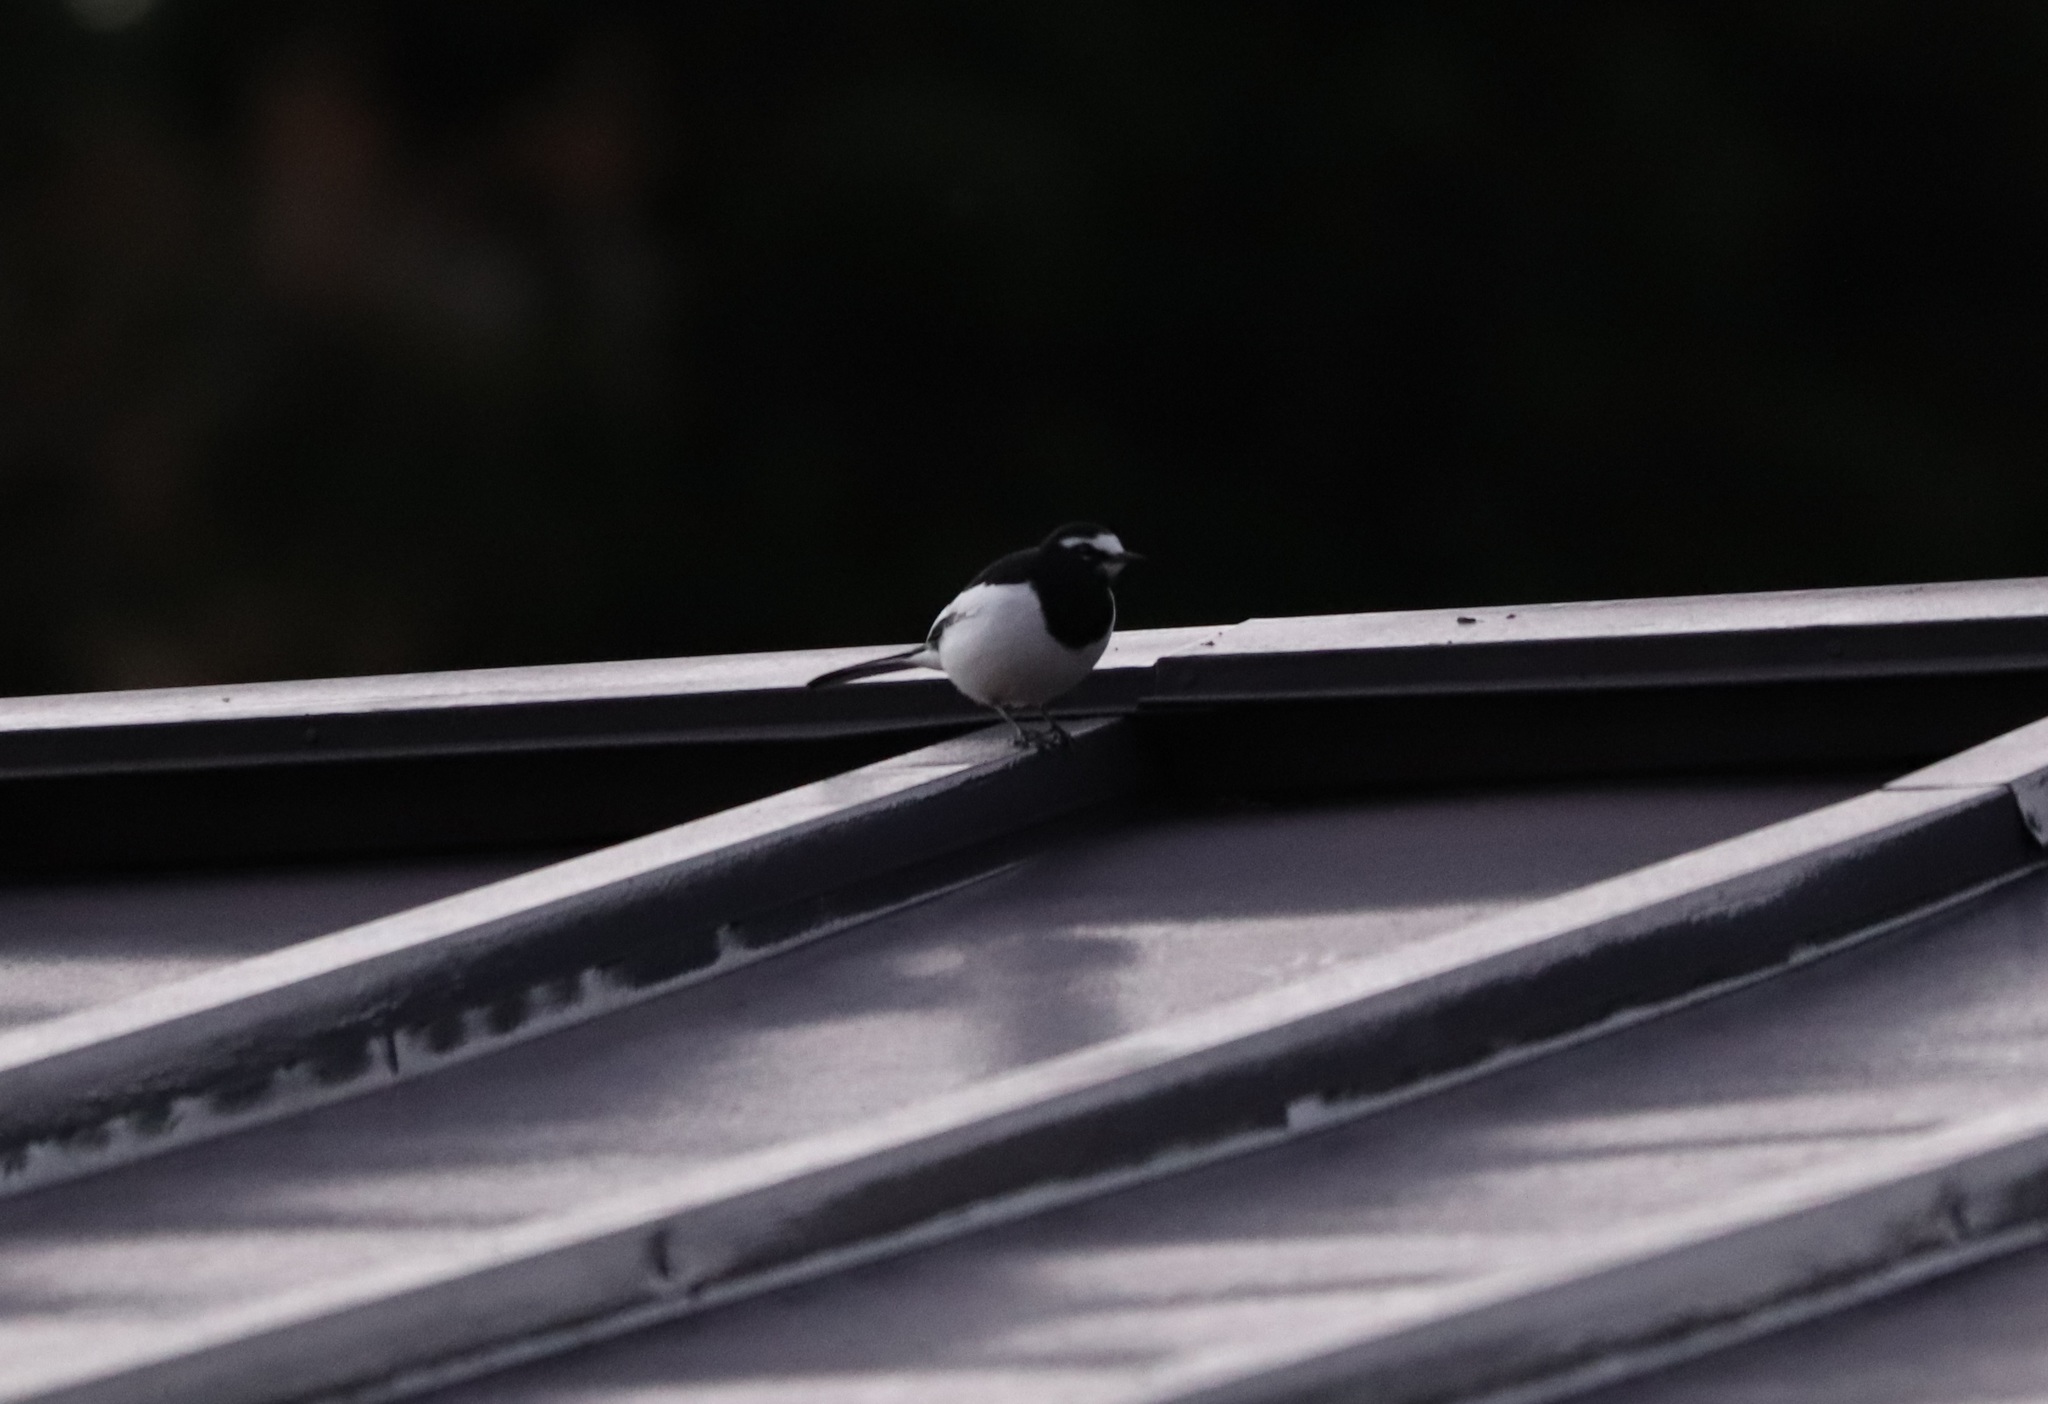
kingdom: Animalia
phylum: Chordata
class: Aves
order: Passeriformes
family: Motacillidae
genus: Motacilla
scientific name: Motacilla grandis
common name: Japanese wagtail
